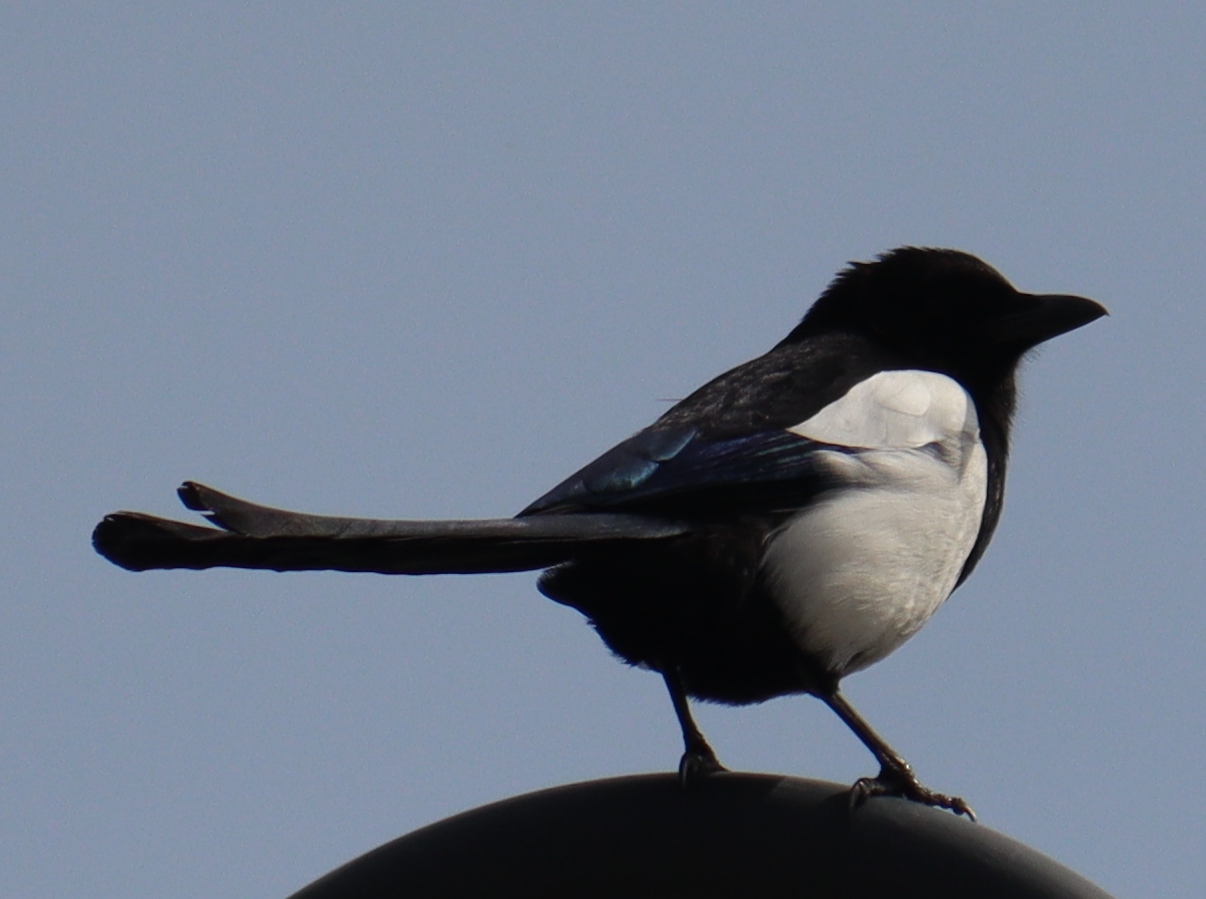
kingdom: Animalia
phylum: Chordata
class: Aves
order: Passeriformes
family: Corvidae
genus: Pica
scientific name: Pica pica
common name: Eurasian magpie
